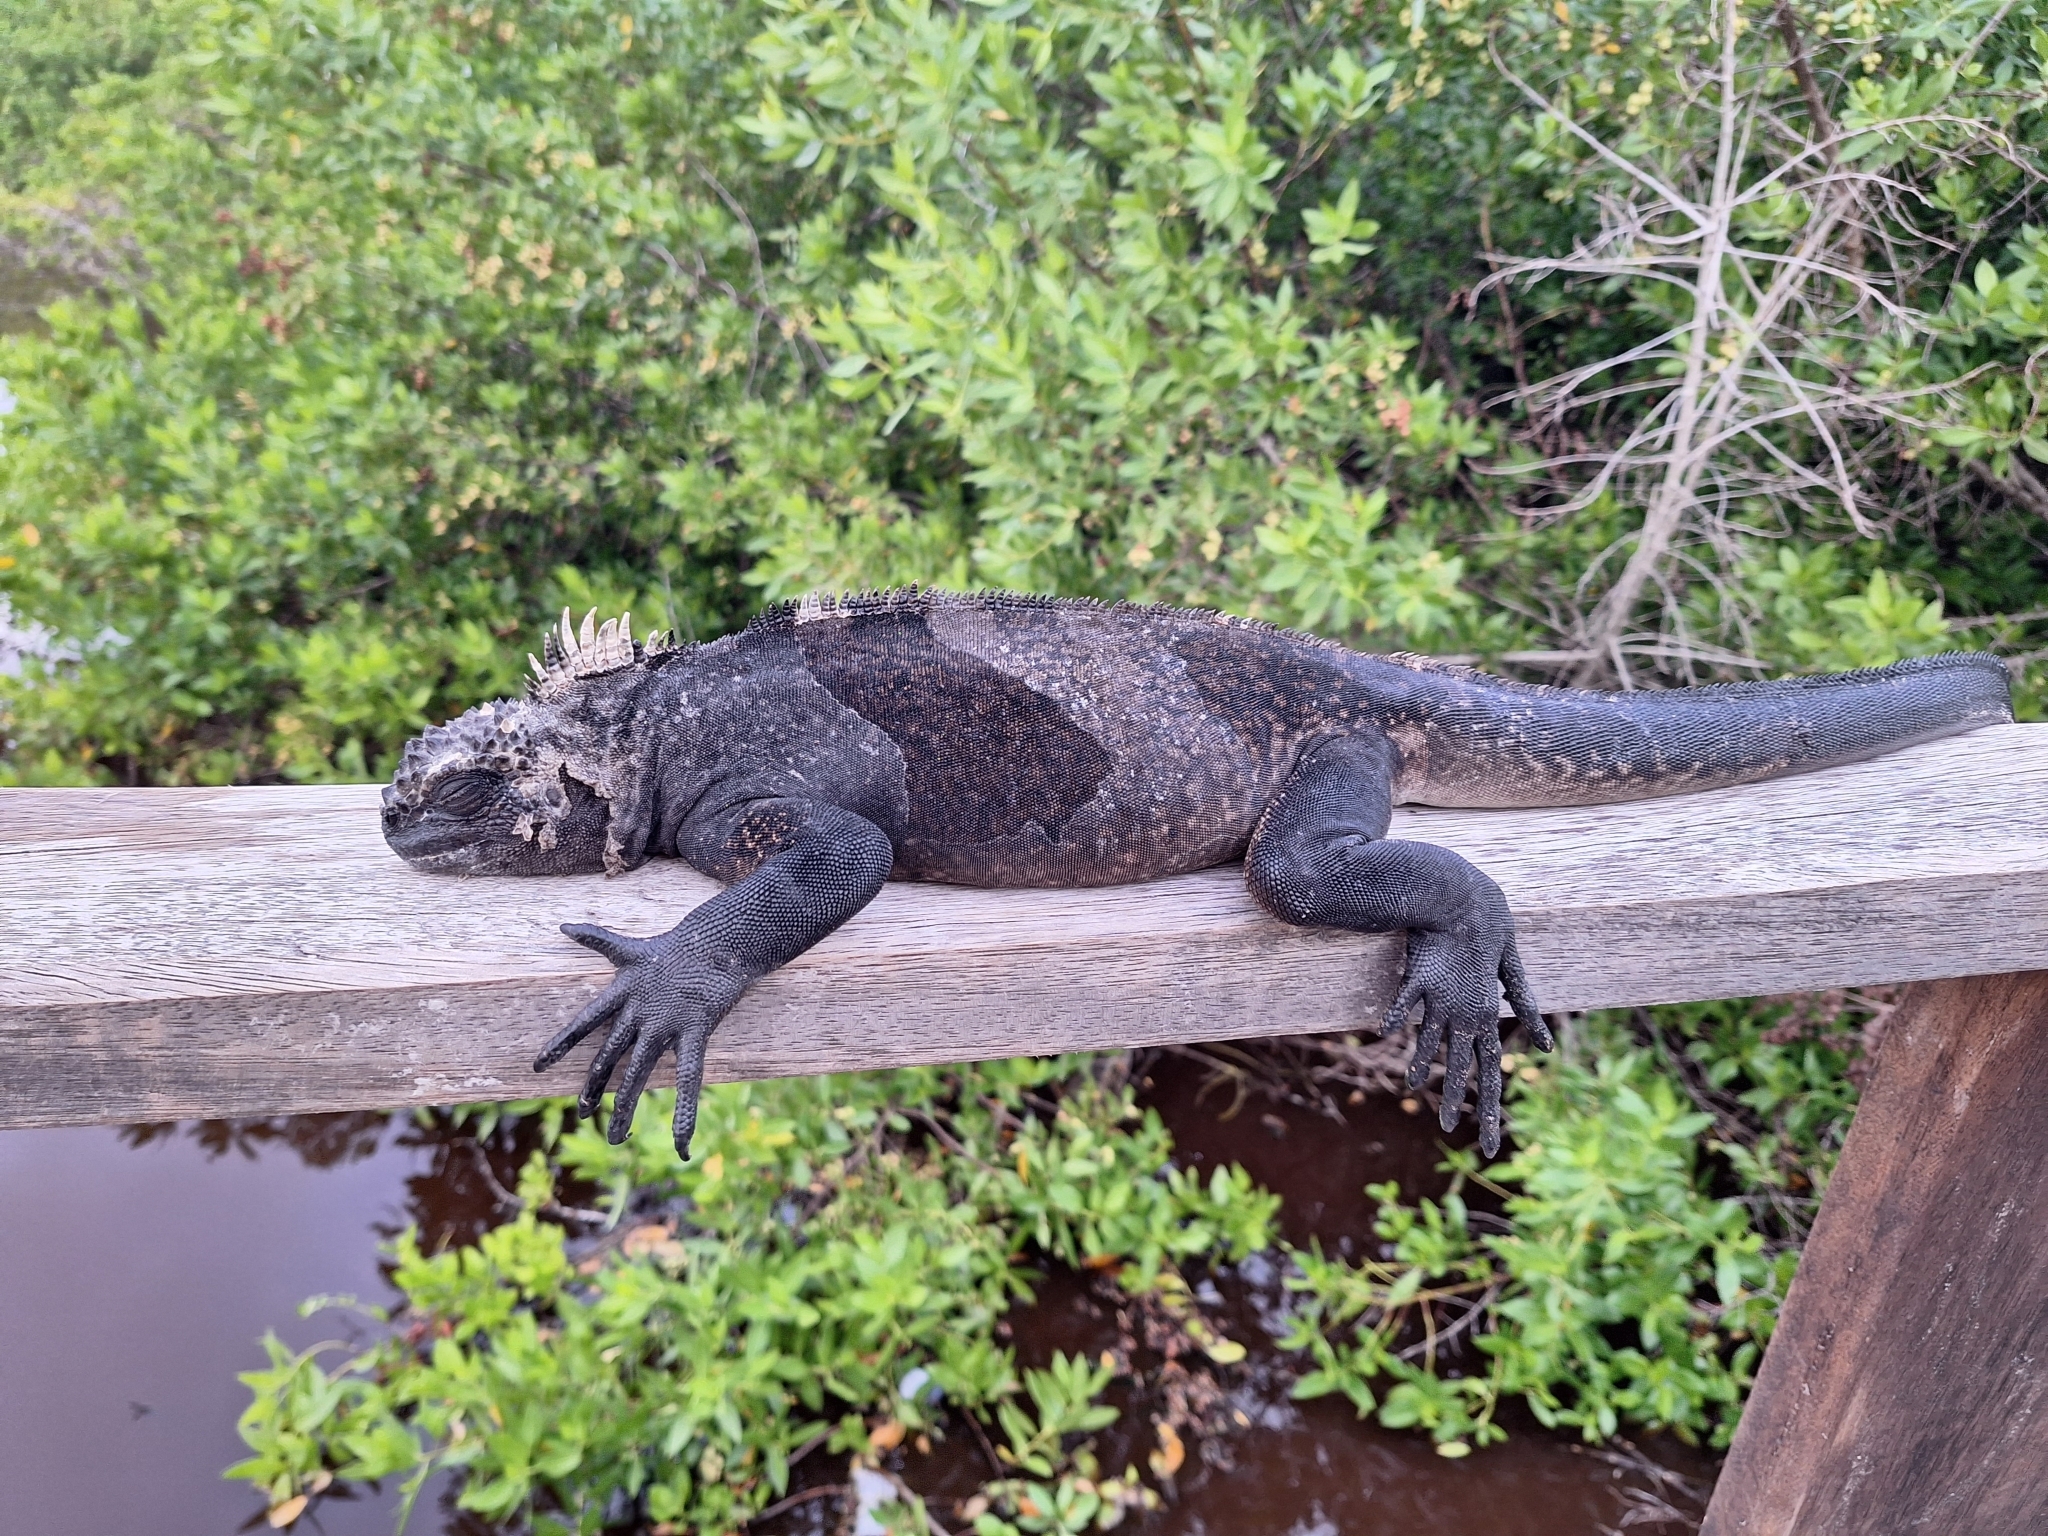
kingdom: Animalia
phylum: Chordata
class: Squamata
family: Iguanidae
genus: Amblyrhynchus
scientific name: Amblyrhynchus cristatus
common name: Marine iguana
